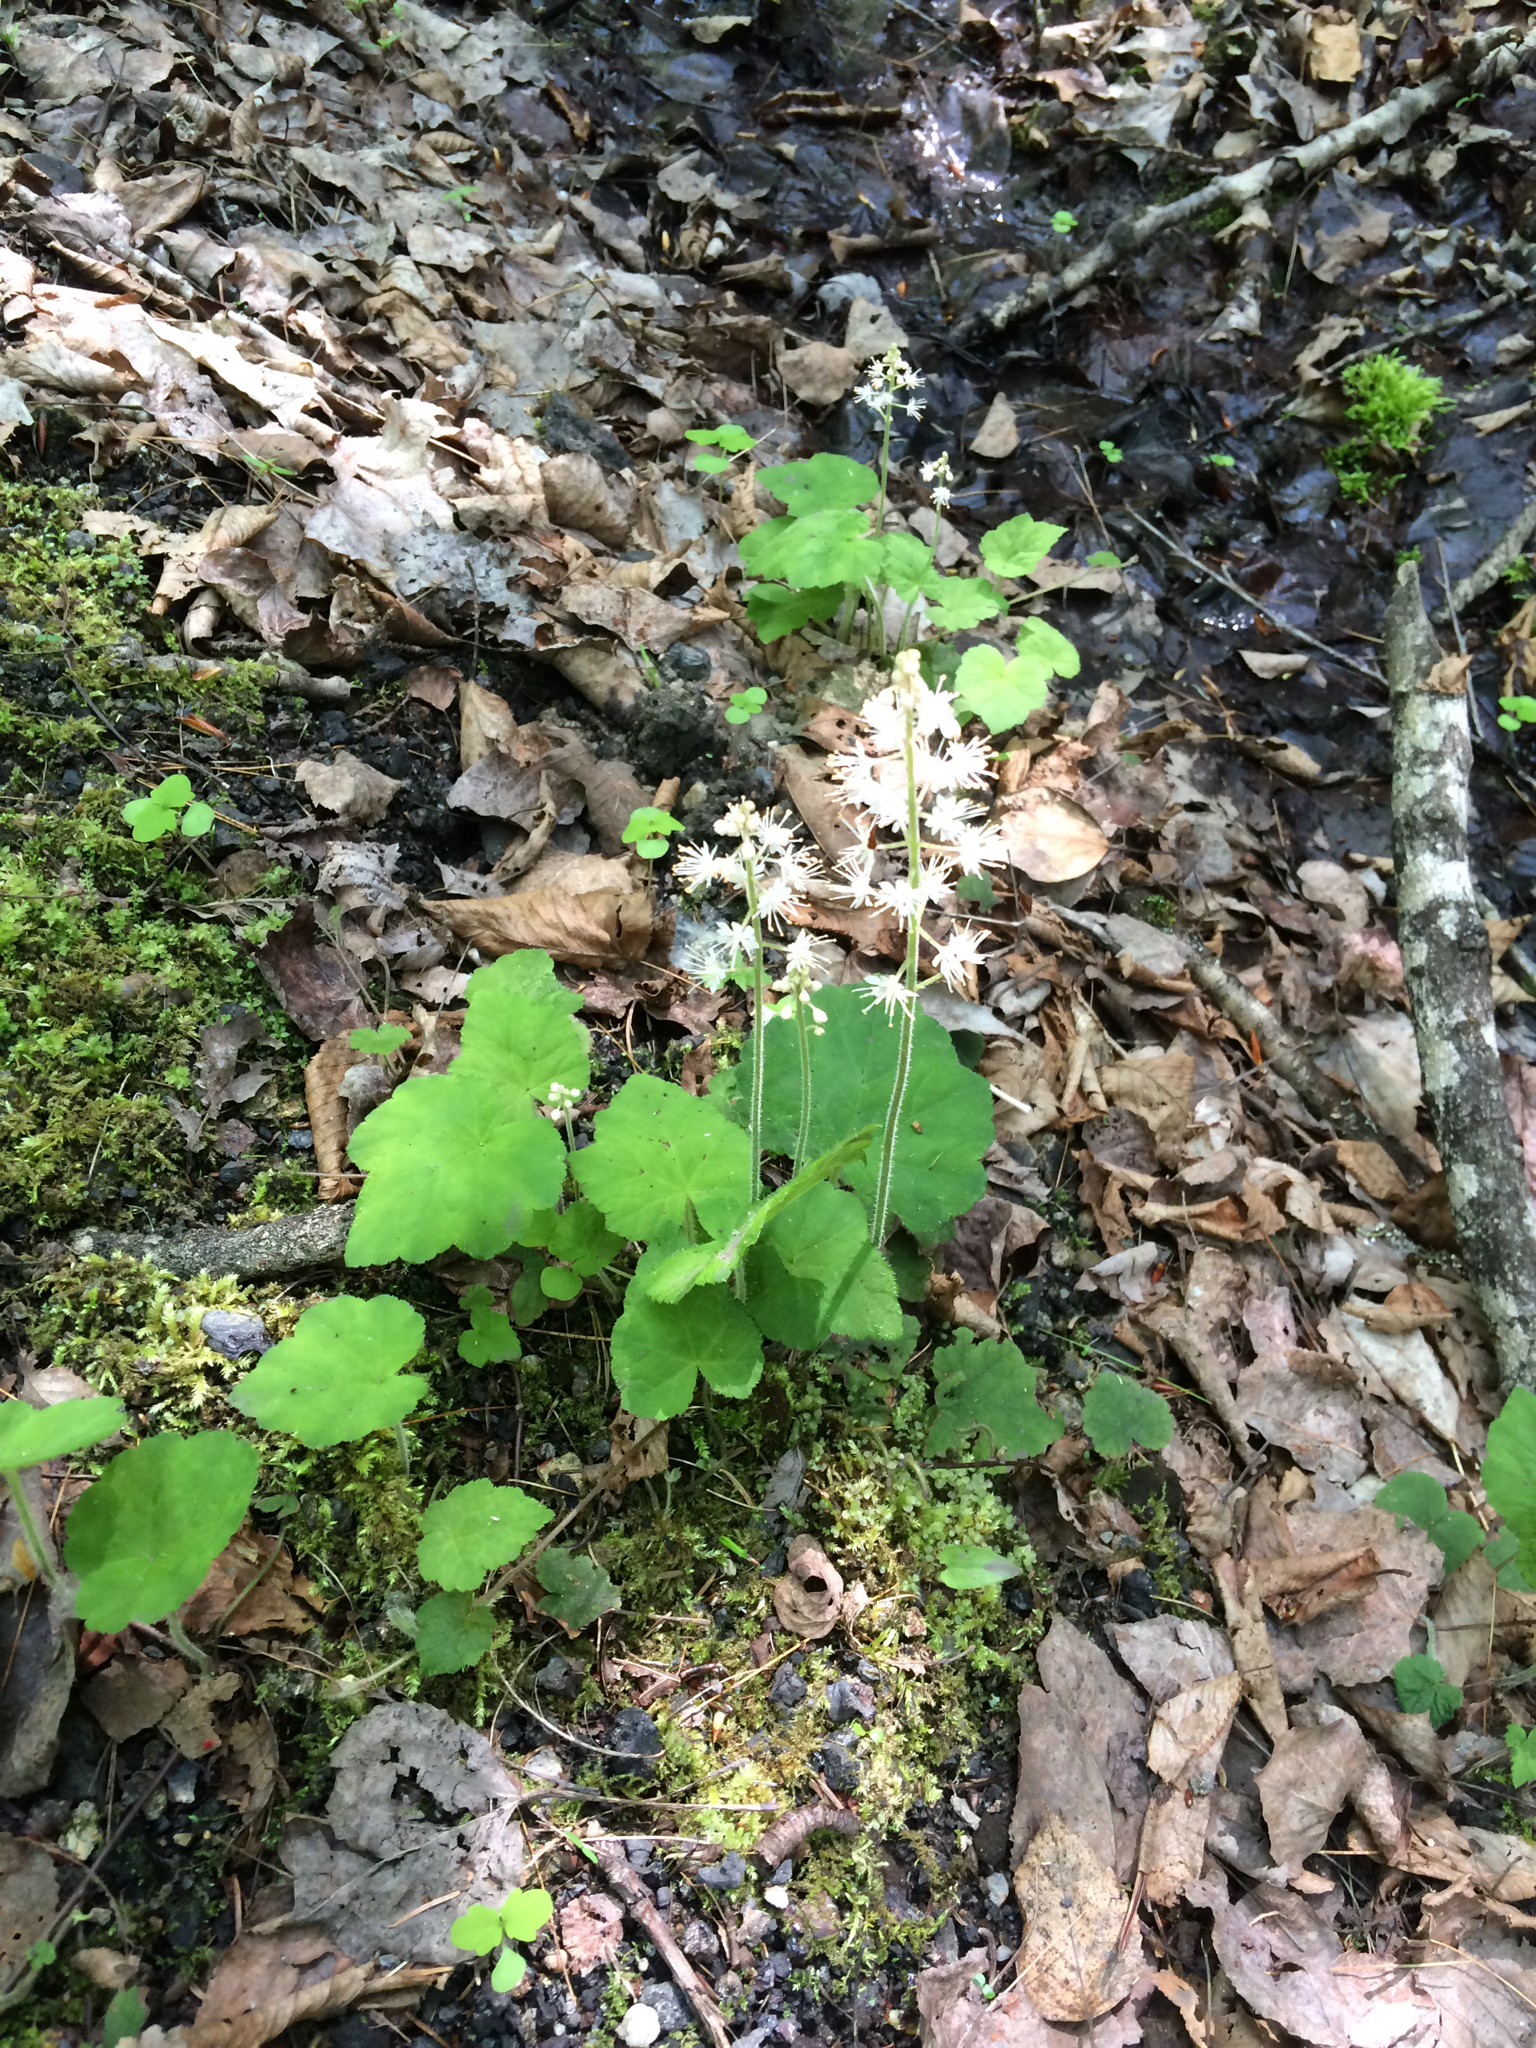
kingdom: Plantae
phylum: Tracheophyta
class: Magnoliopsida
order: Saxifragales
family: Saxifragaceae
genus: Tiarella
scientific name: Tiarella stolonifera
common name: Stoloniferous foamflower
